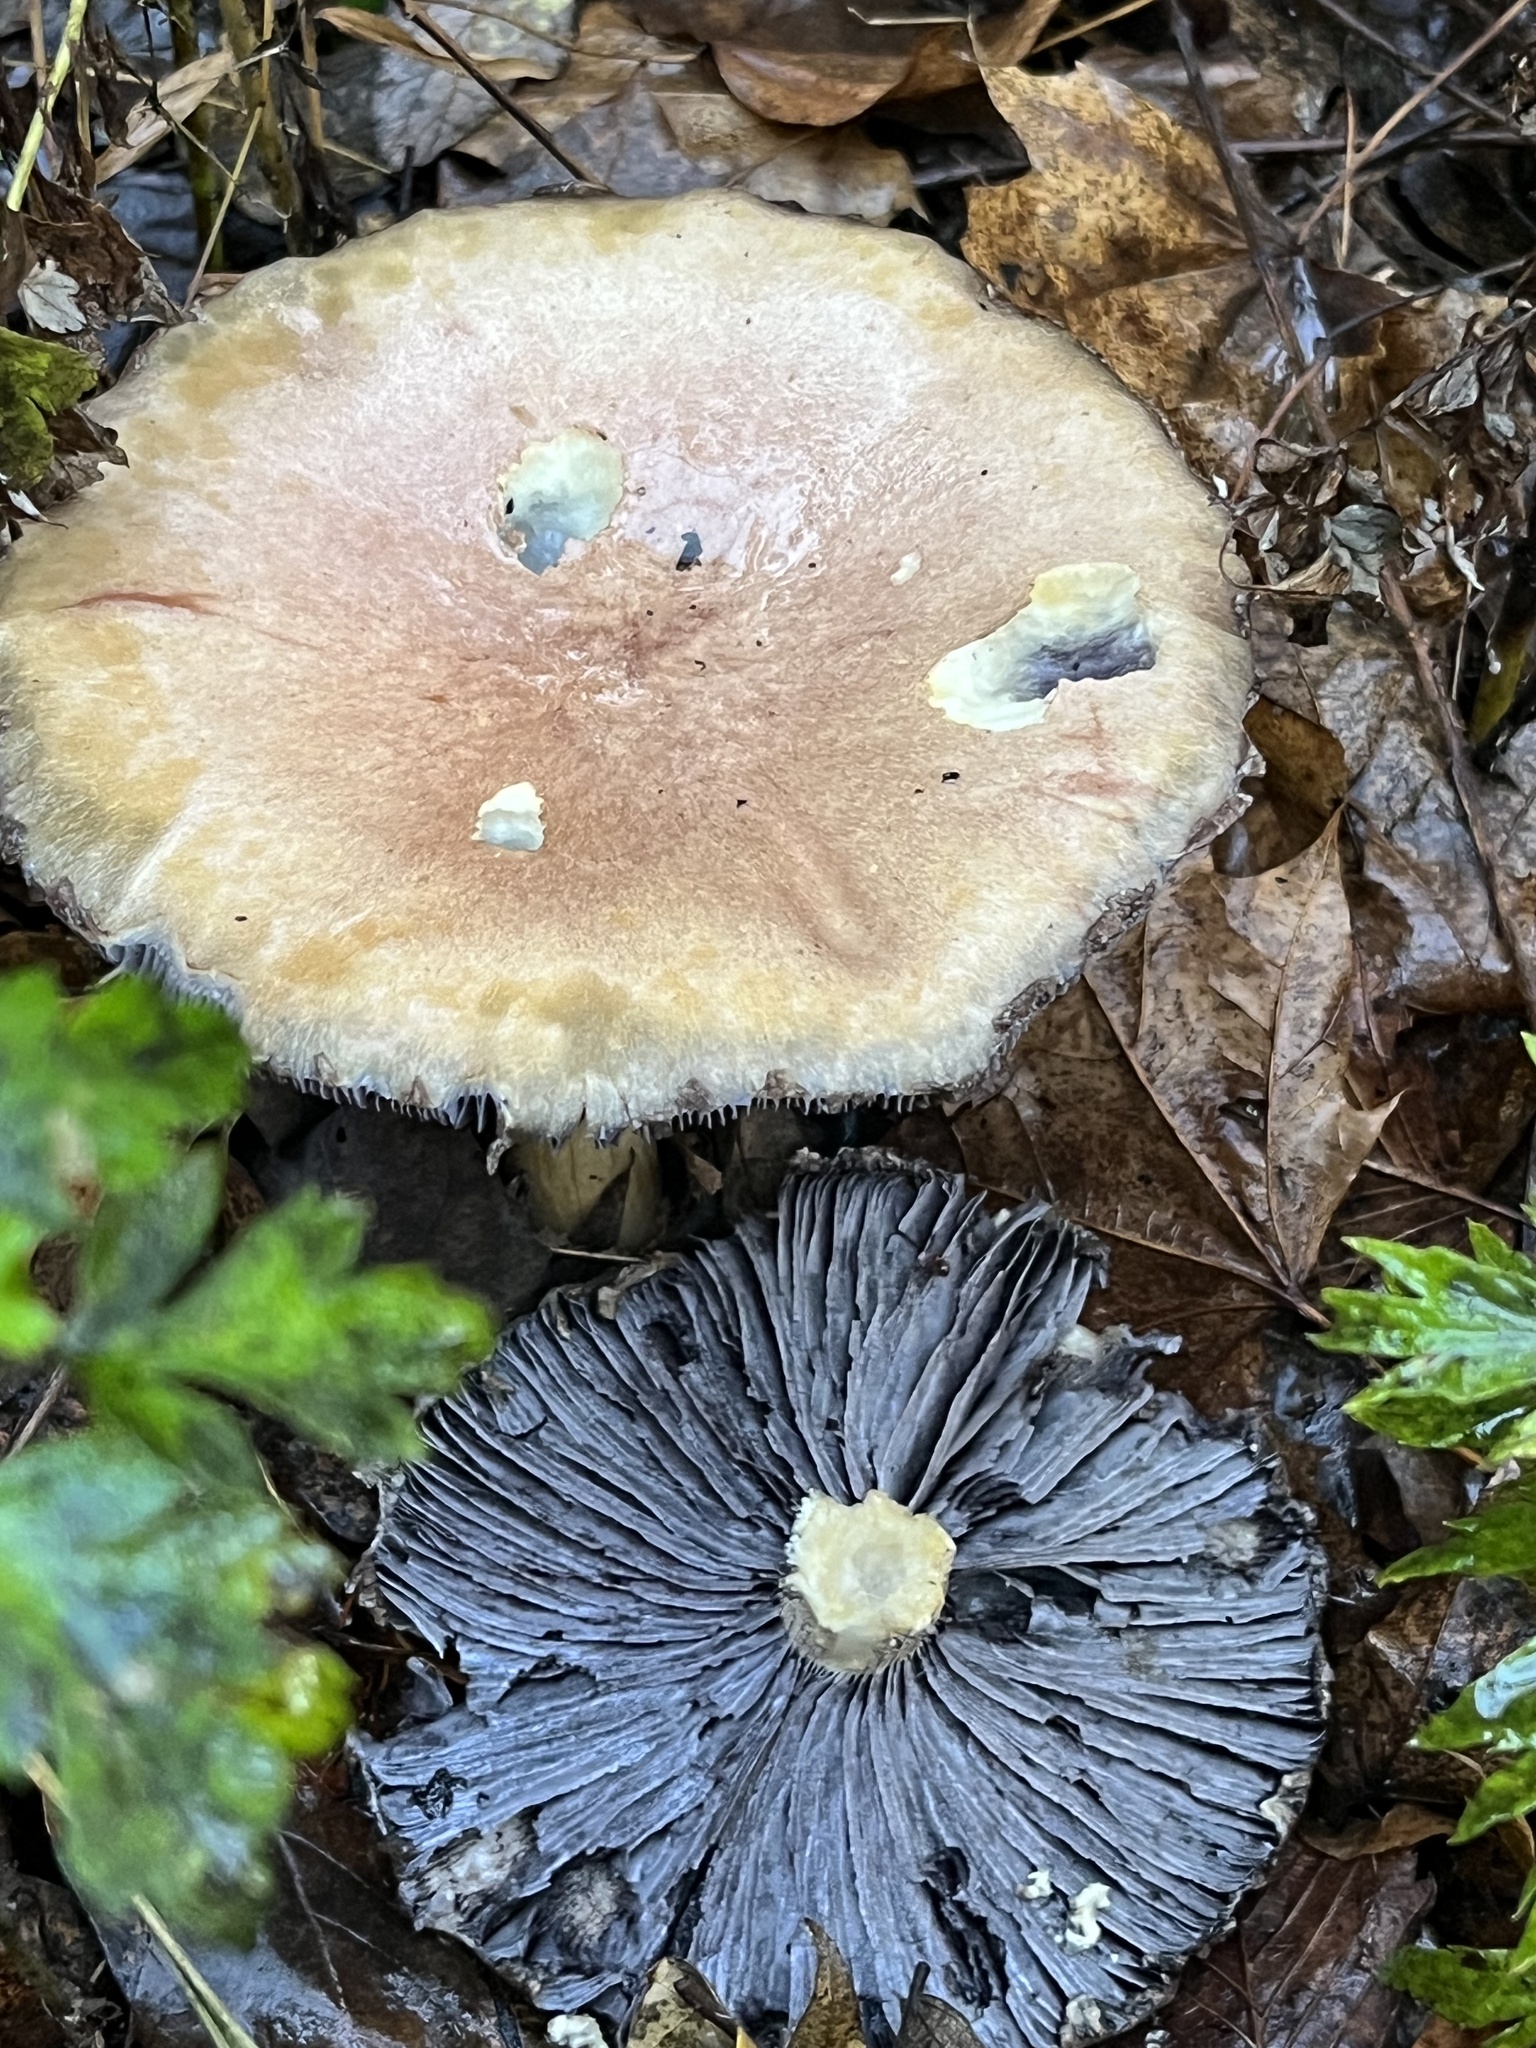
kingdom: Fungi
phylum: Basidiomycota
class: Agaricomycetes
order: Agaricales
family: Strophariaceae
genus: Stropharia
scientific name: Stropharia rugosoannulata
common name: Wine roundhead
